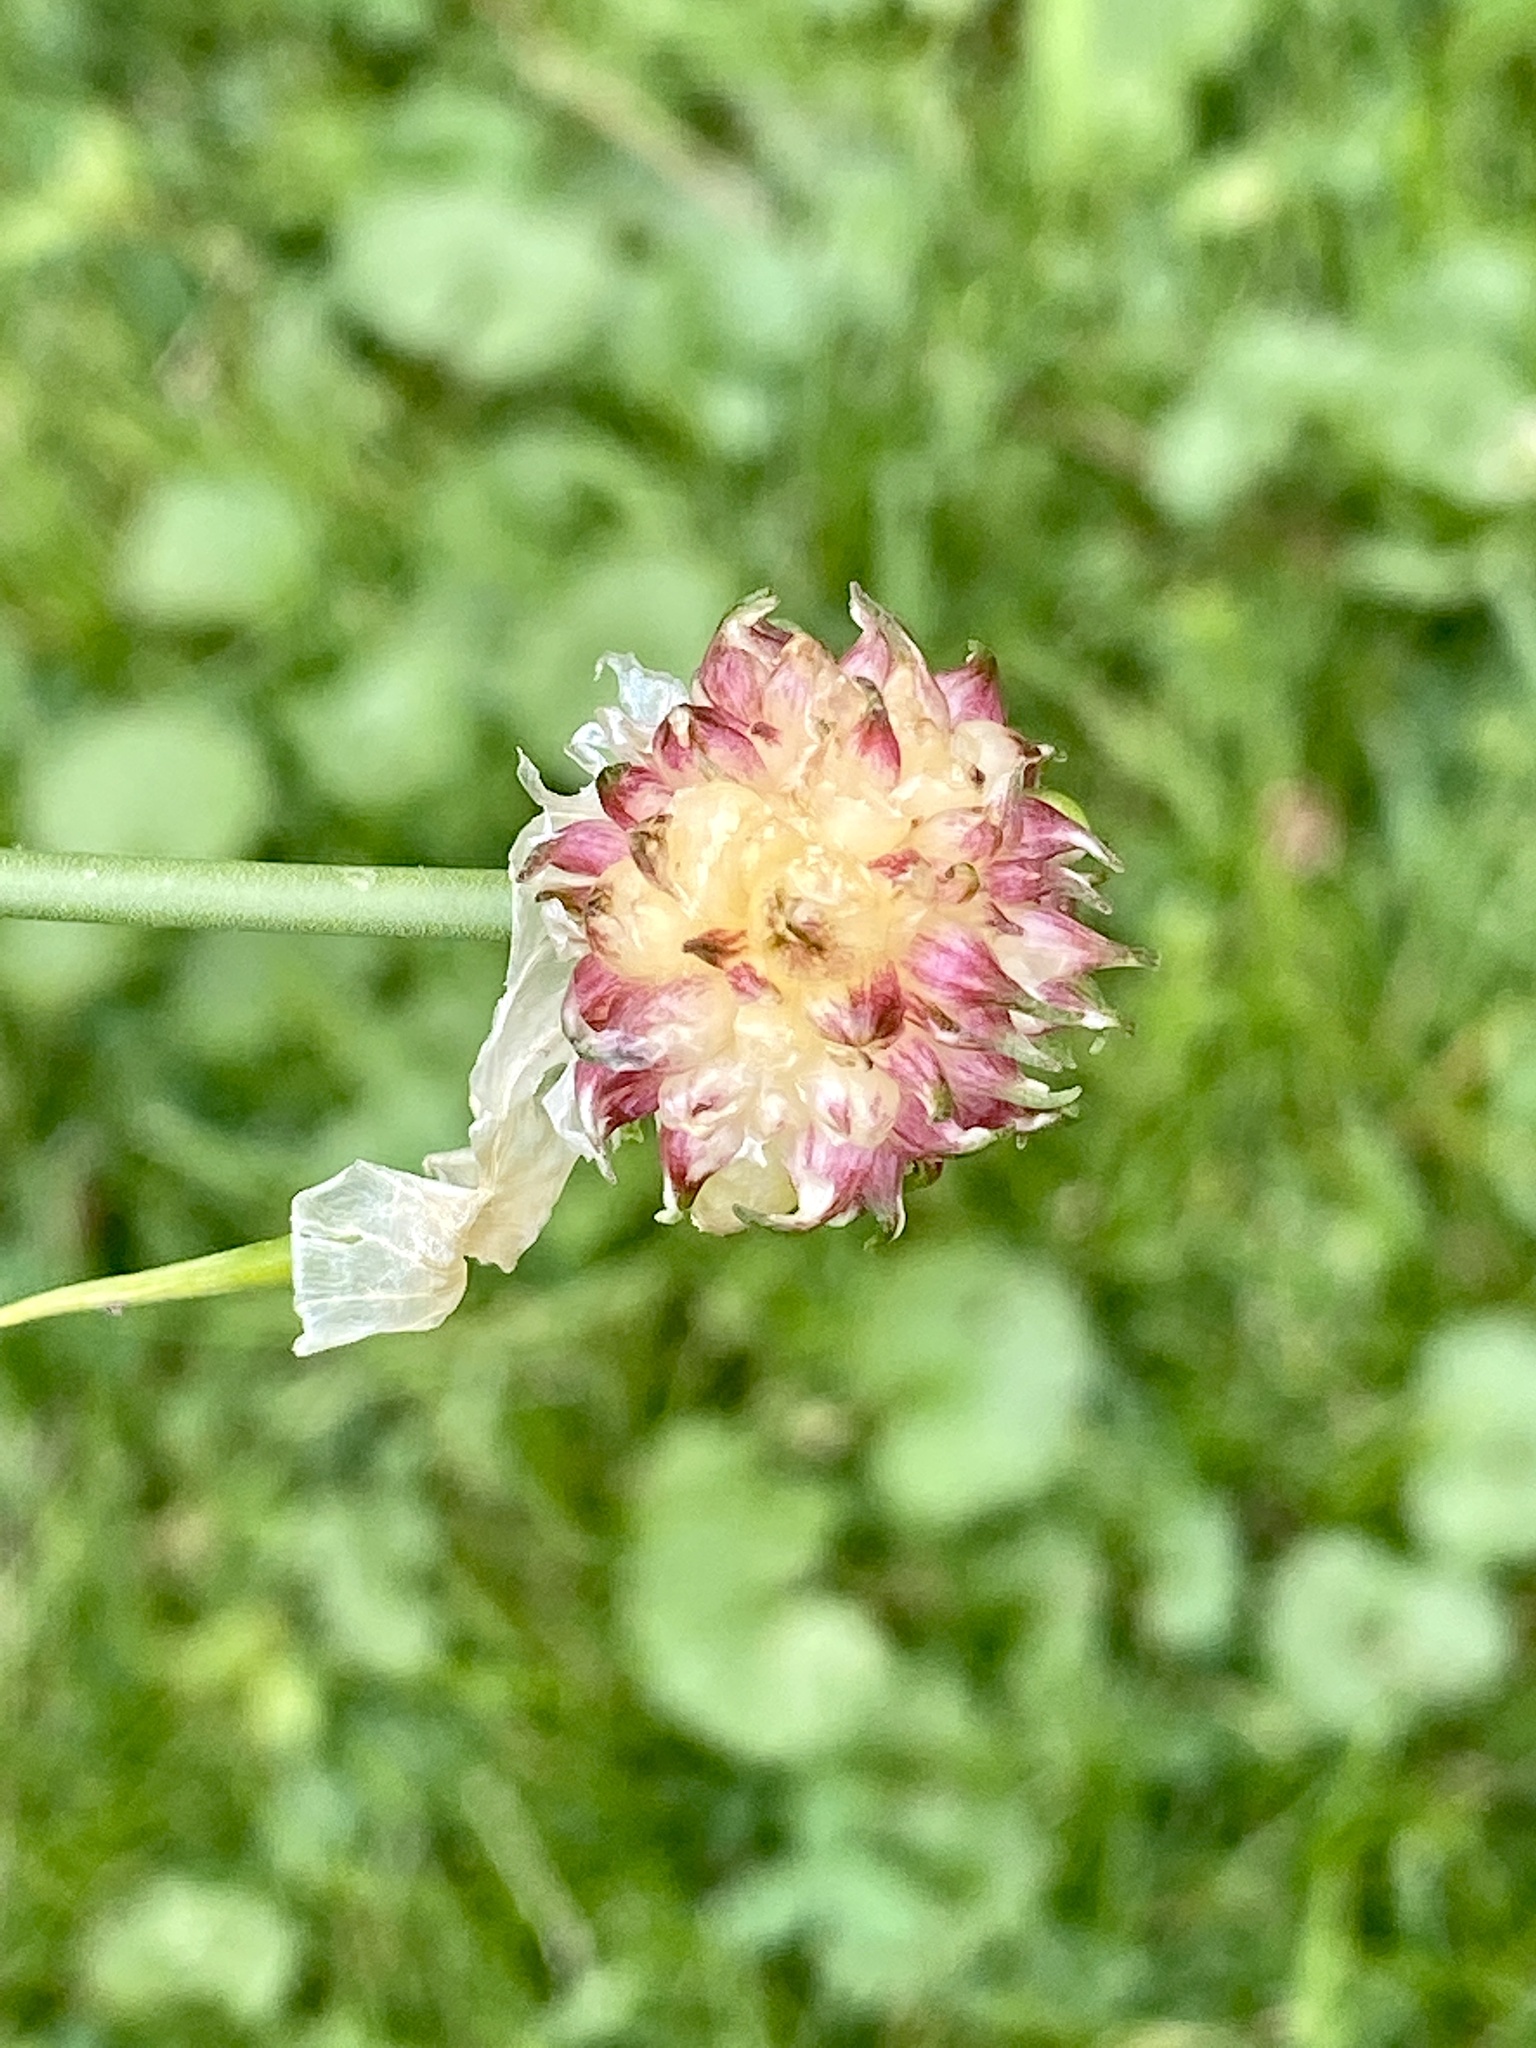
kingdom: Plantae
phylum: Tracheophyta
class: Liliopsida
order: Asparagales
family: Amaryllidaceae
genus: Allium
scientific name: Allium vineale
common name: Crow garlic
